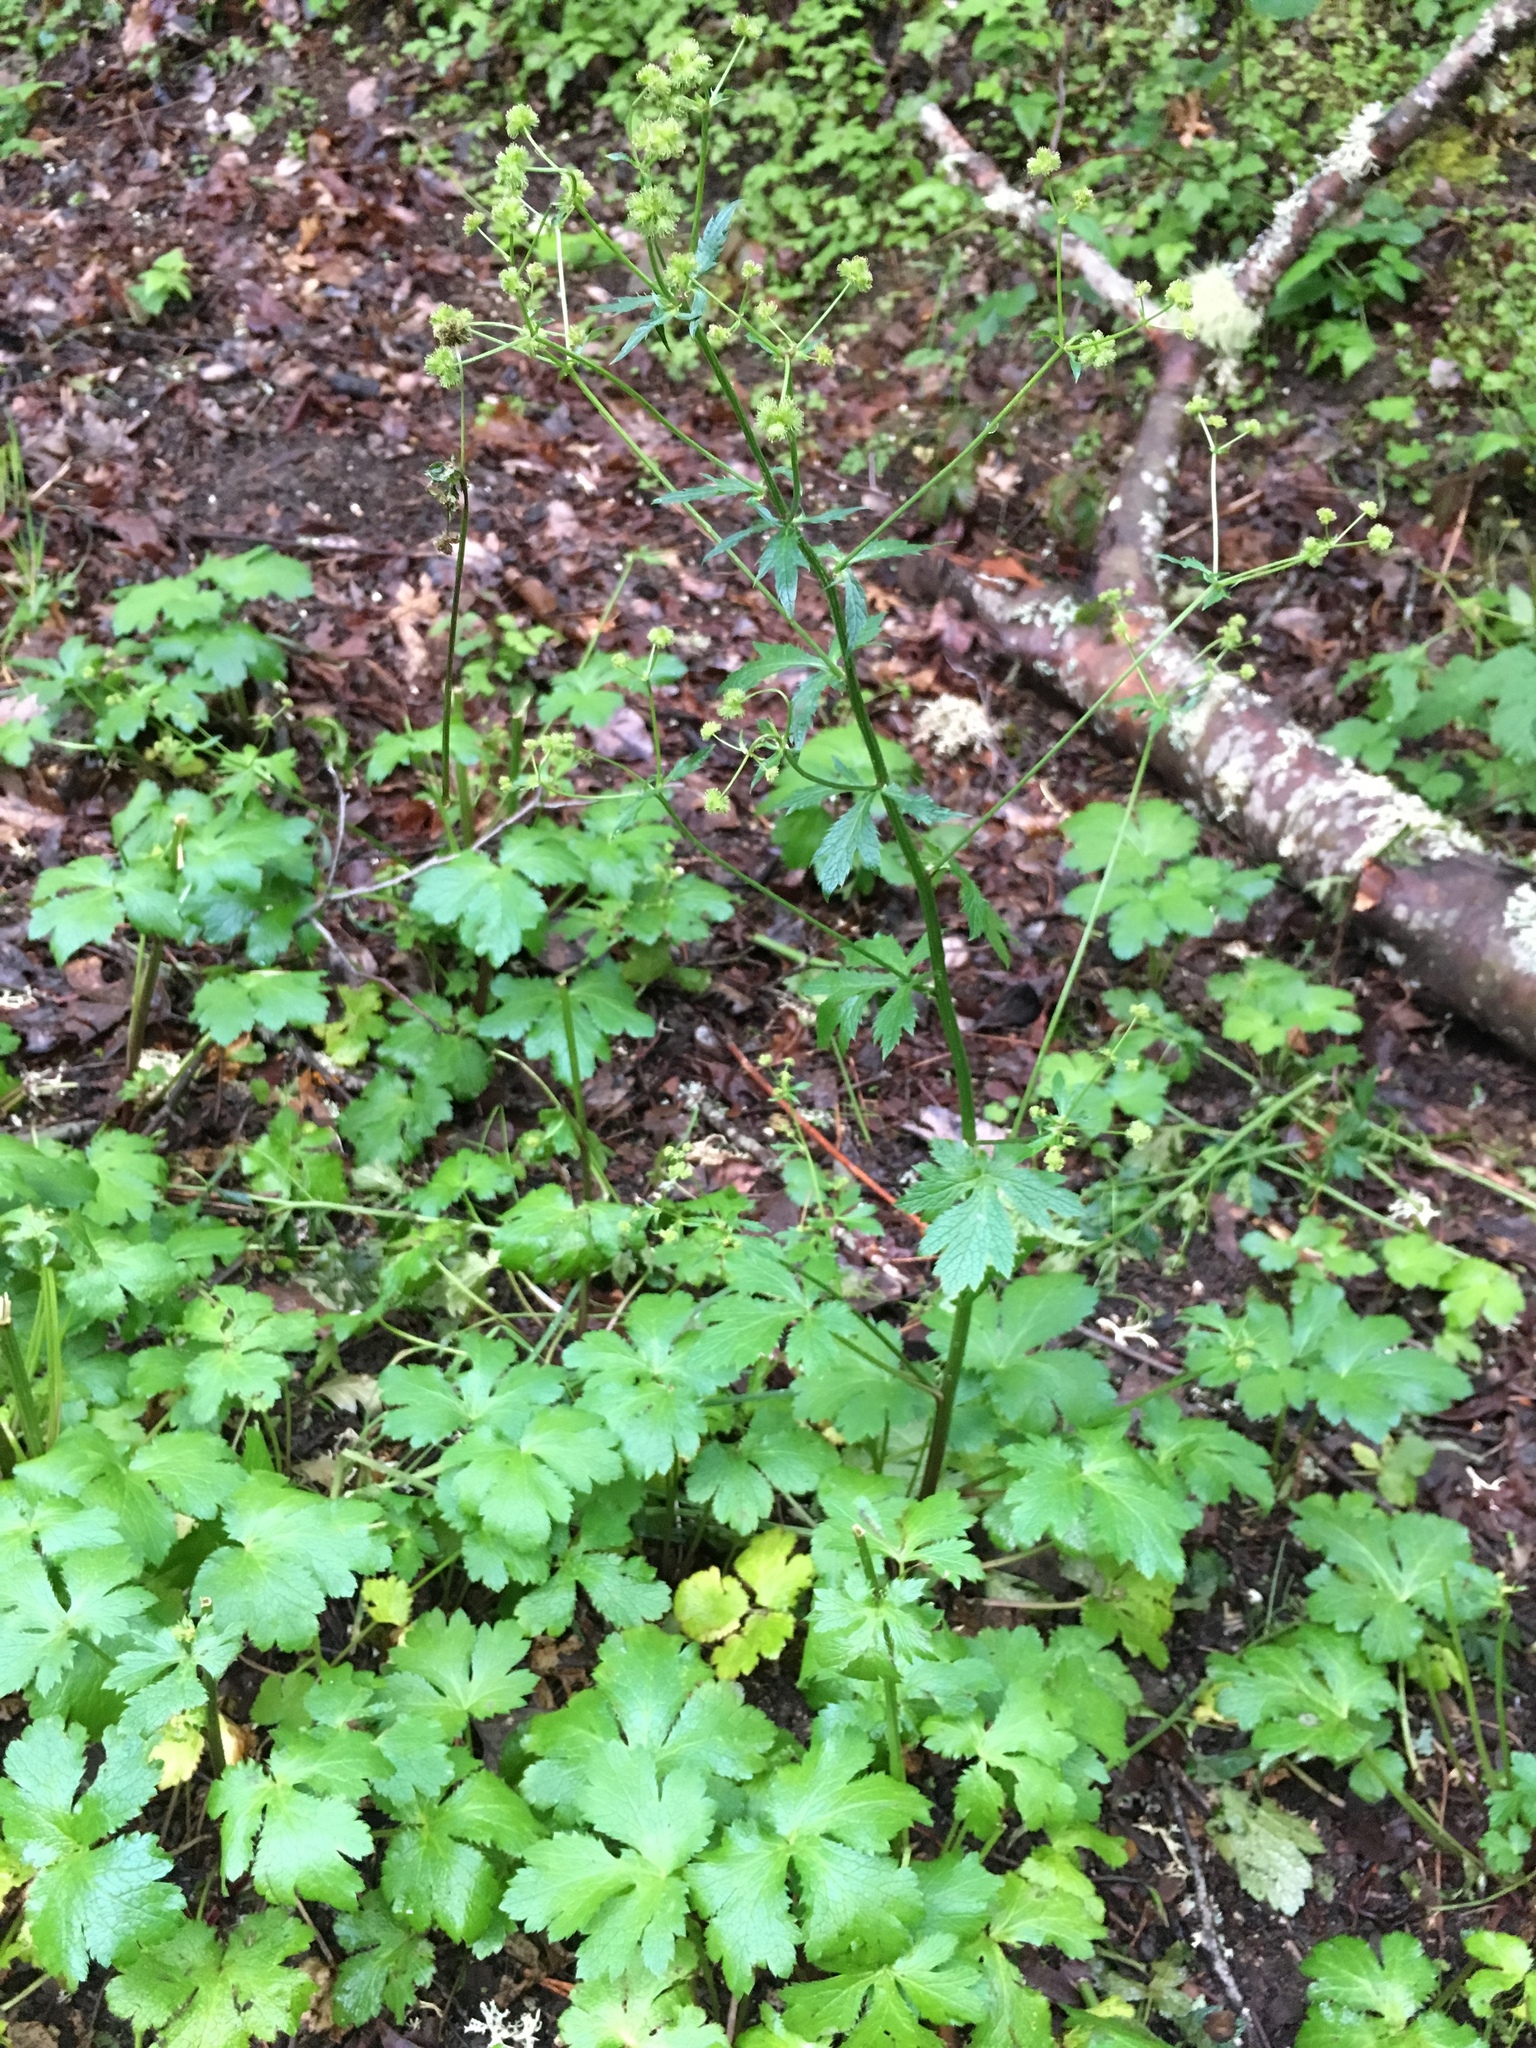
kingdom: Plantae
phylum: Tracheophyta
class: Magnoliopsida
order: Apiales
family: Apiaceae
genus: Sanicula
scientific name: Sanicula crassicaulis
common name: Western snakeroot
